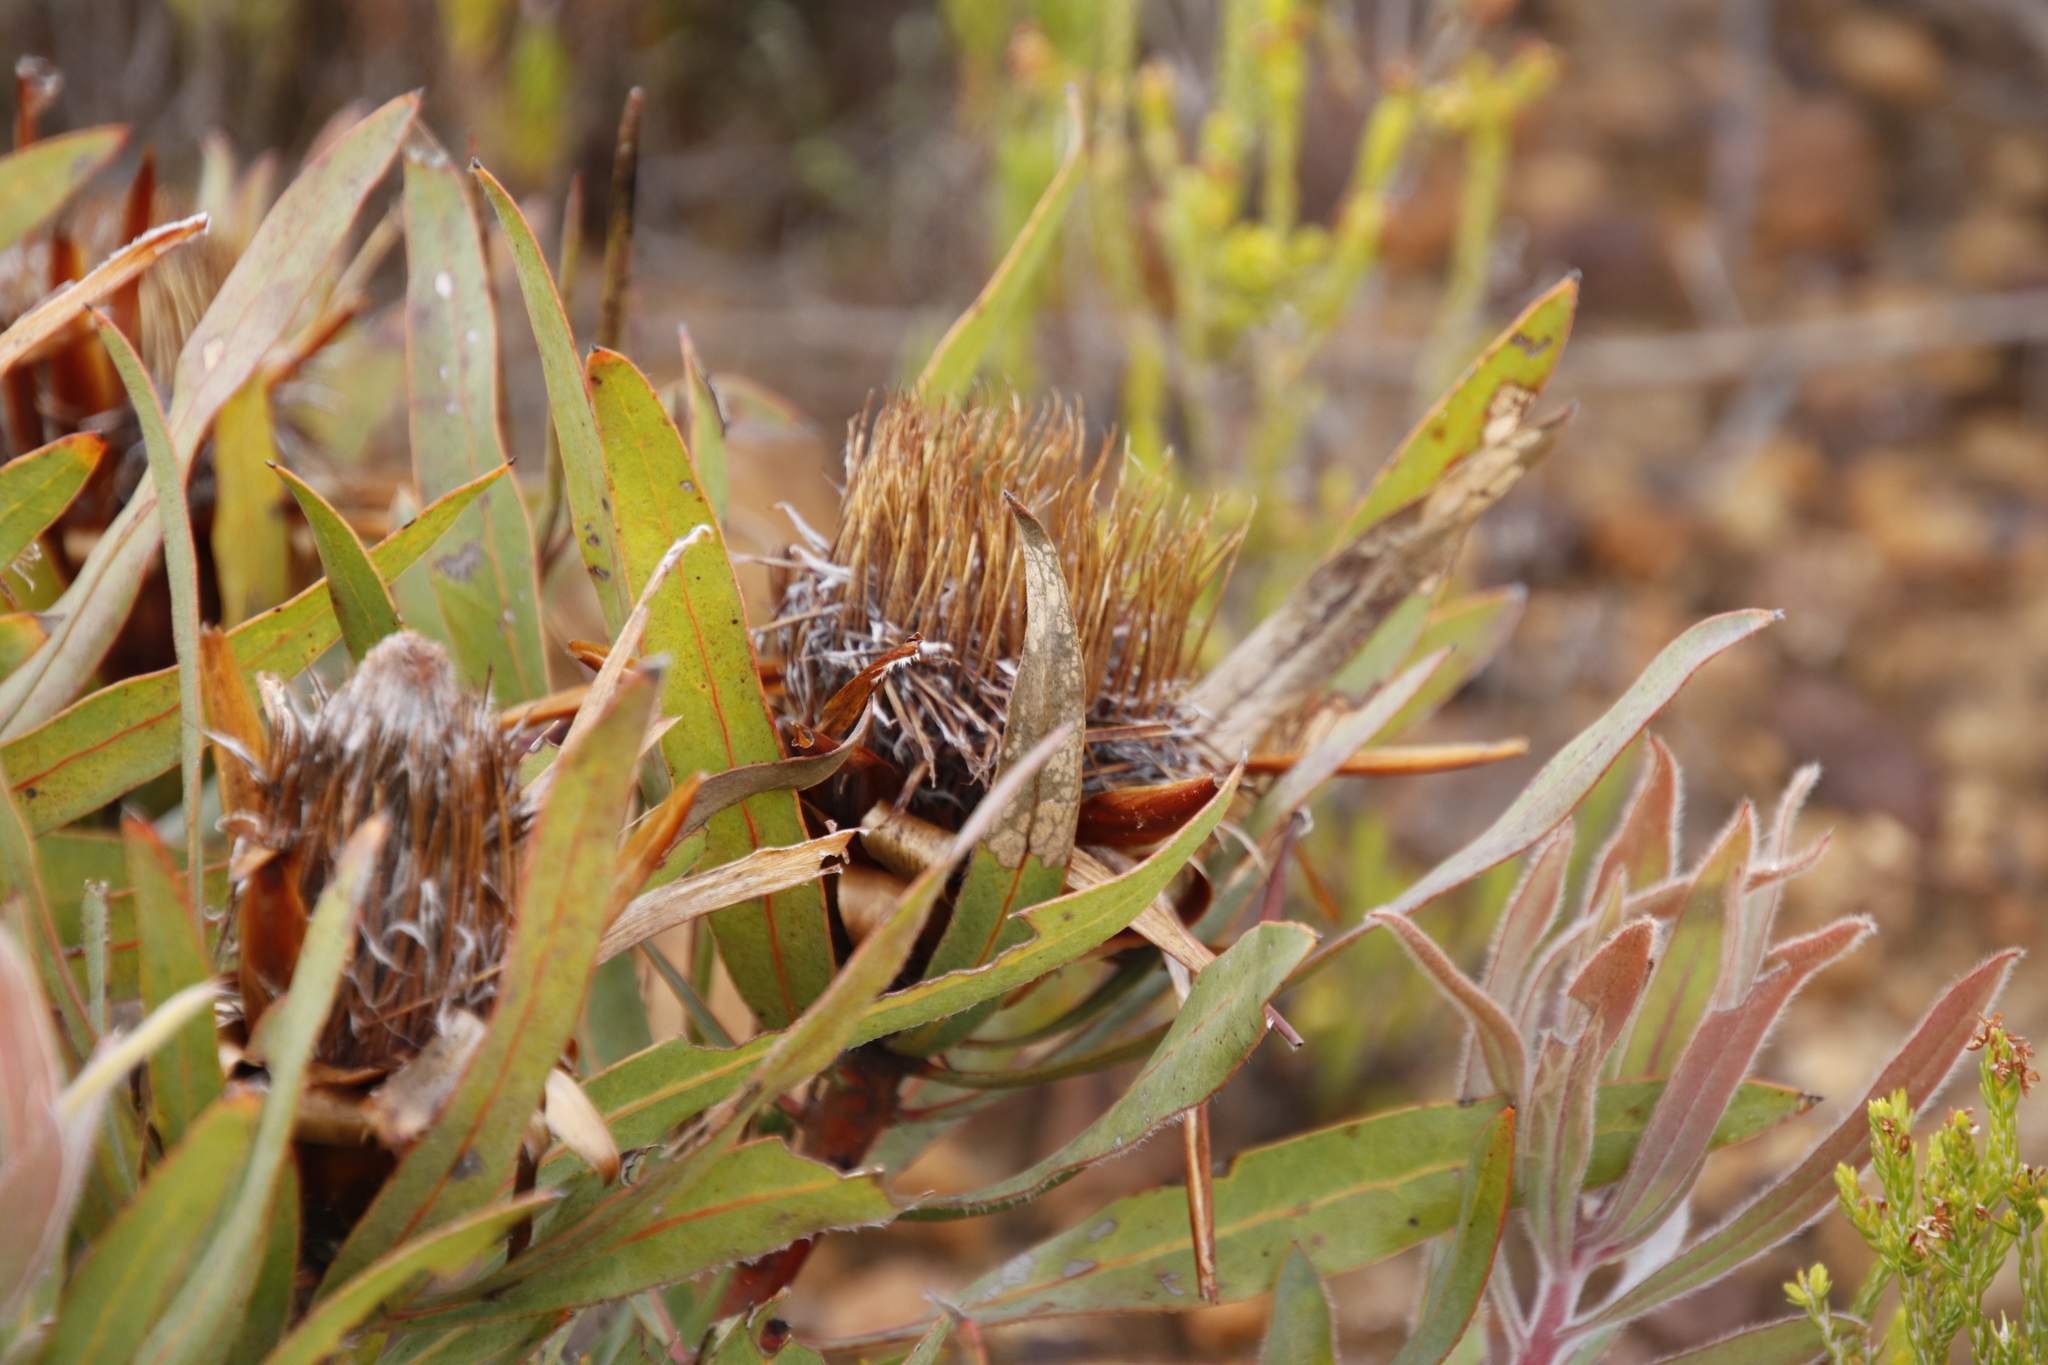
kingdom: Plantae
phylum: Tracheophyta
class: Magnoliopsida
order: Proteales
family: Proteaceae
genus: Protea
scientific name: Protea
